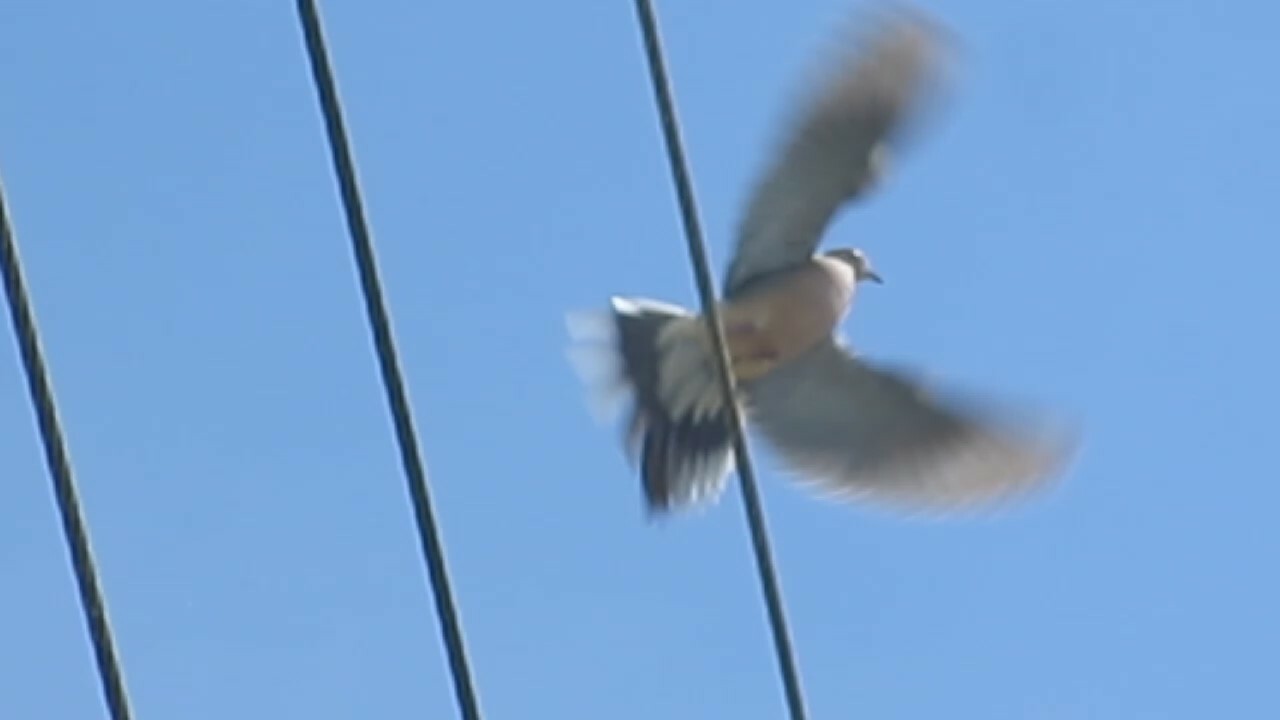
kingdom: Animalia
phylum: Chordata
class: Aves
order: Columbiformes
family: Columbidae
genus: Zenaida
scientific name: Zenaida macroura
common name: Mourning dove
